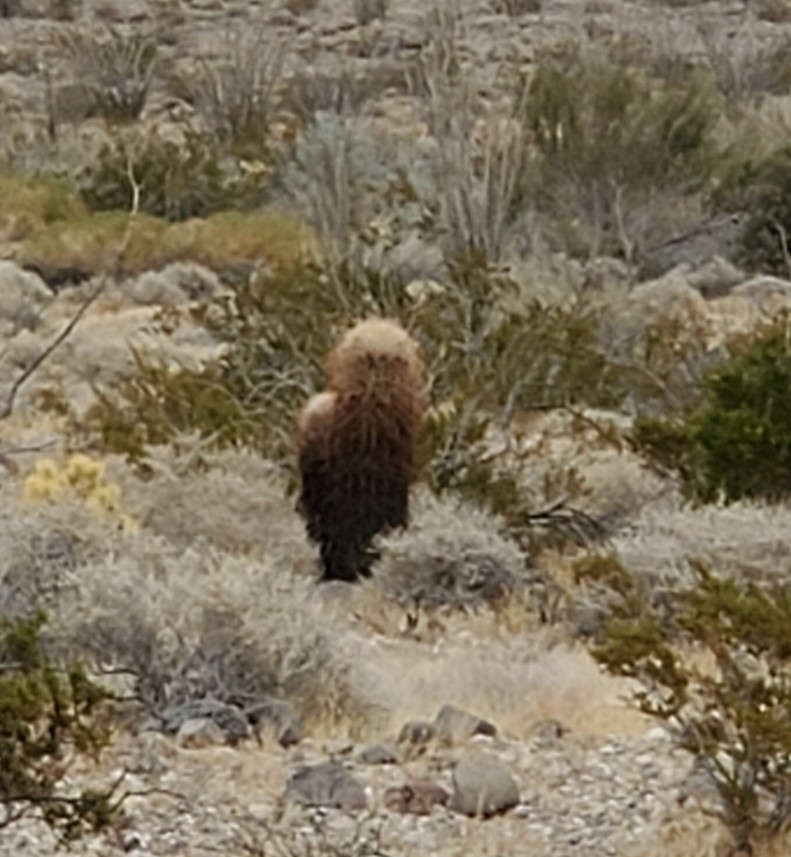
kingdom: Plantae
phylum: Tracheophyta
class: Magnoliopsida
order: Caryophyllales
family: Cactaceae
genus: Ferocactus
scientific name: Ferocactus cylindraceus
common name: California barrel cactus
